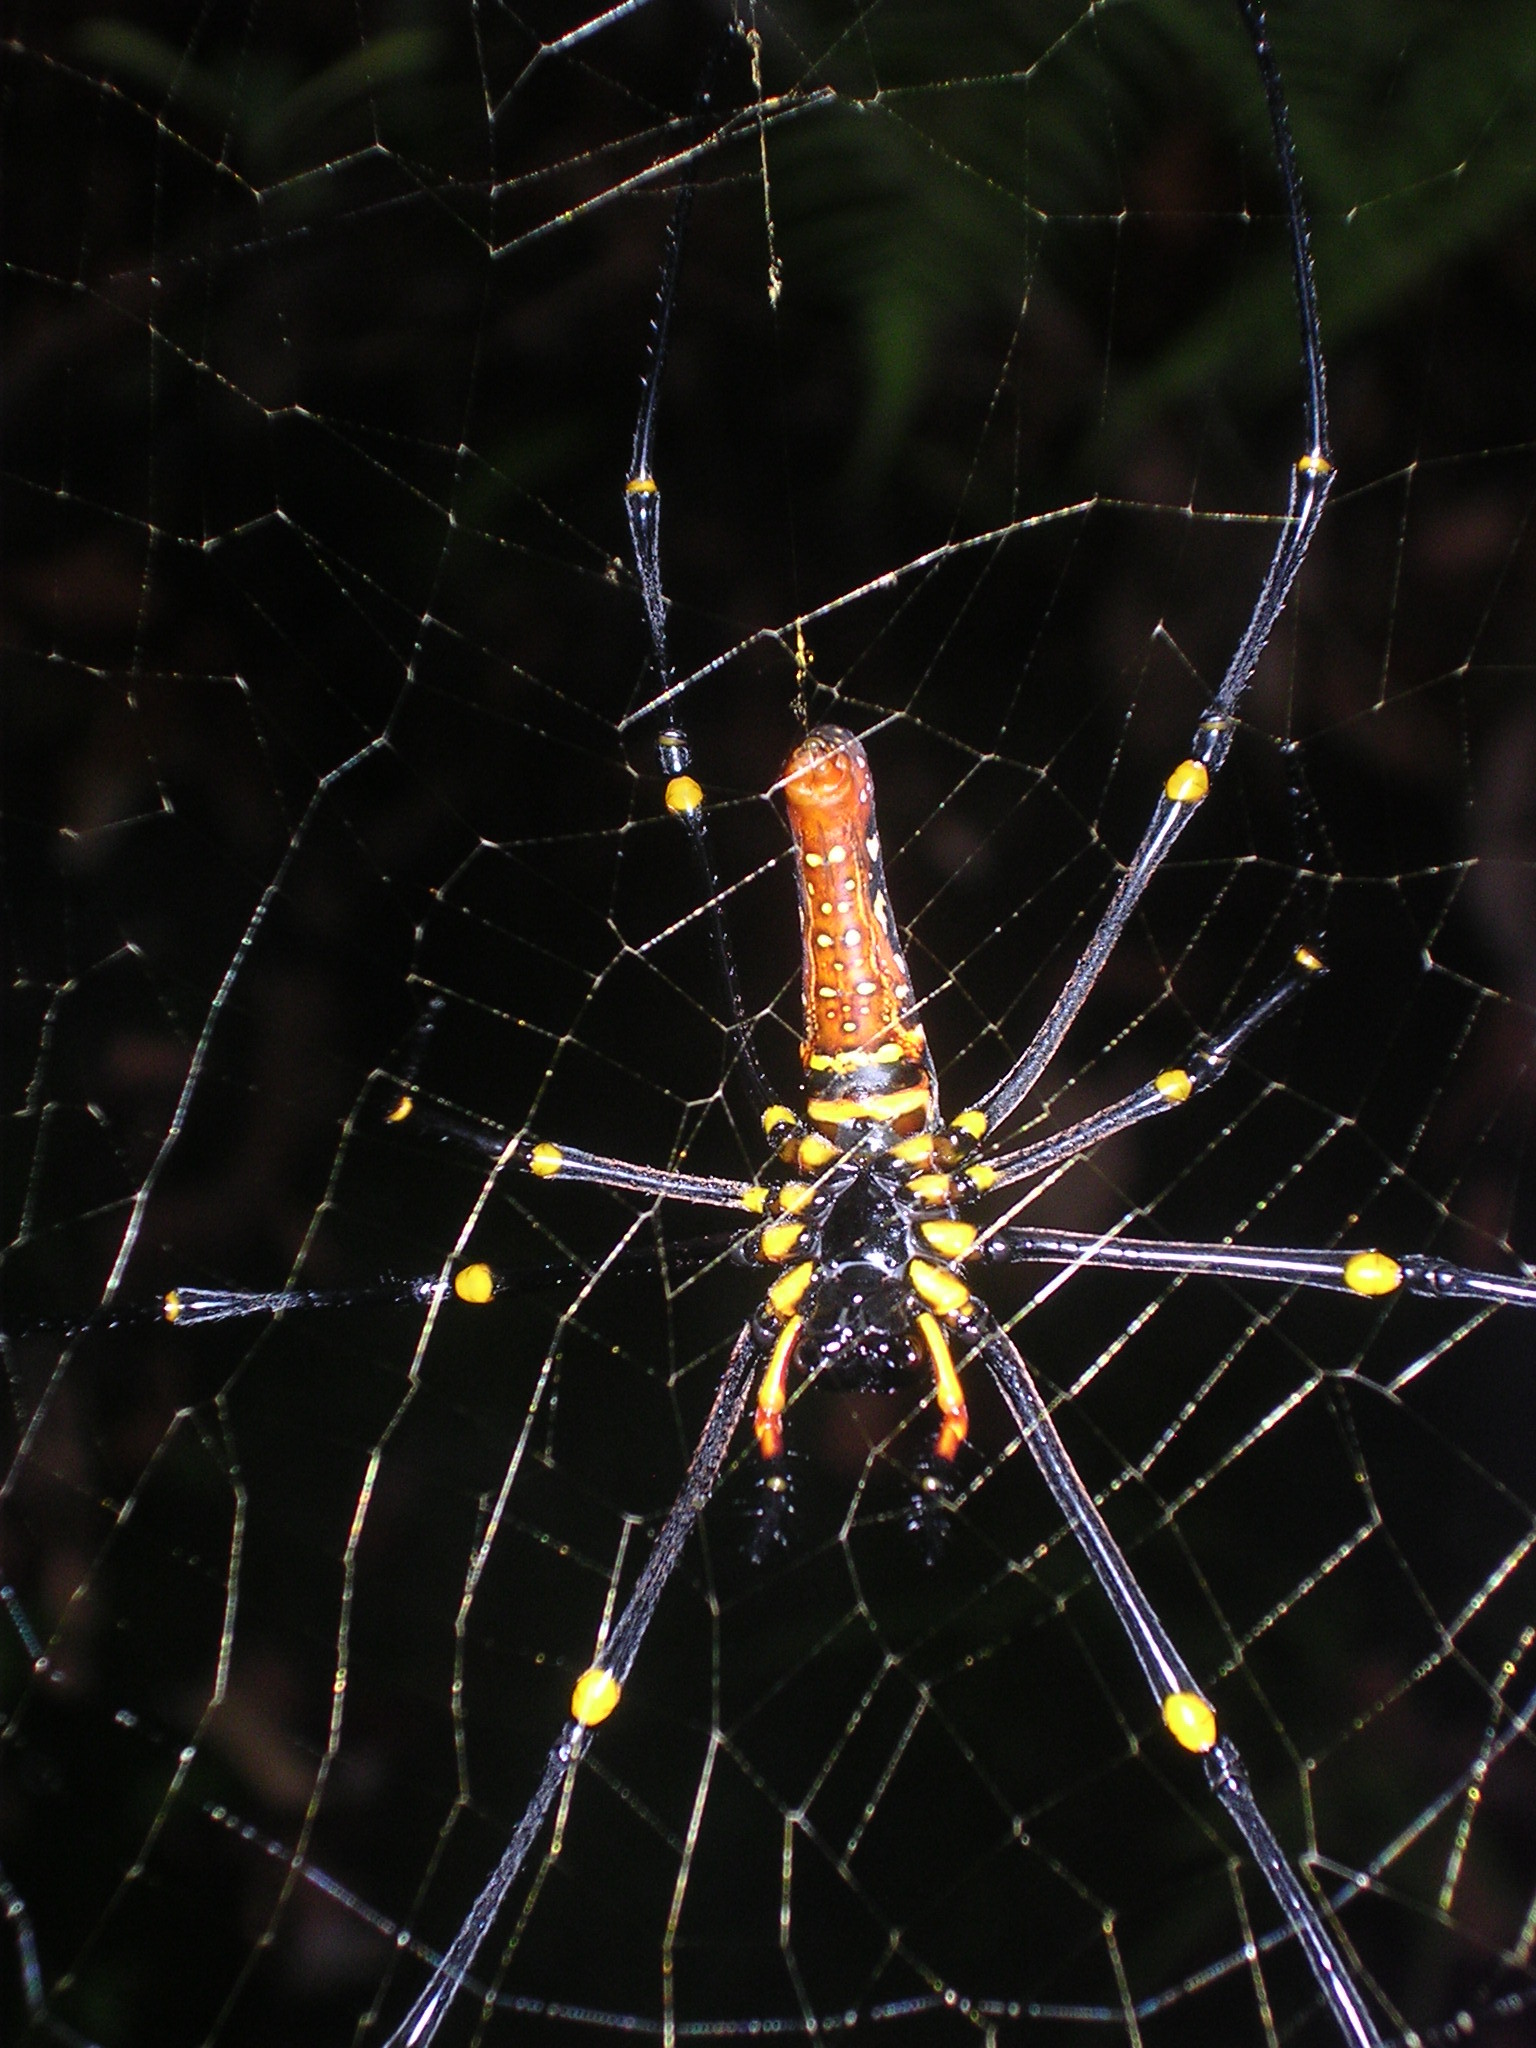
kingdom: Animalia
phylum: Arthropoda
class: Arachnida
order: Araneae
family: Araneidae
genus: Nephila
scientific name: Nephila pilipes
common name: Giant golden orb weaver
